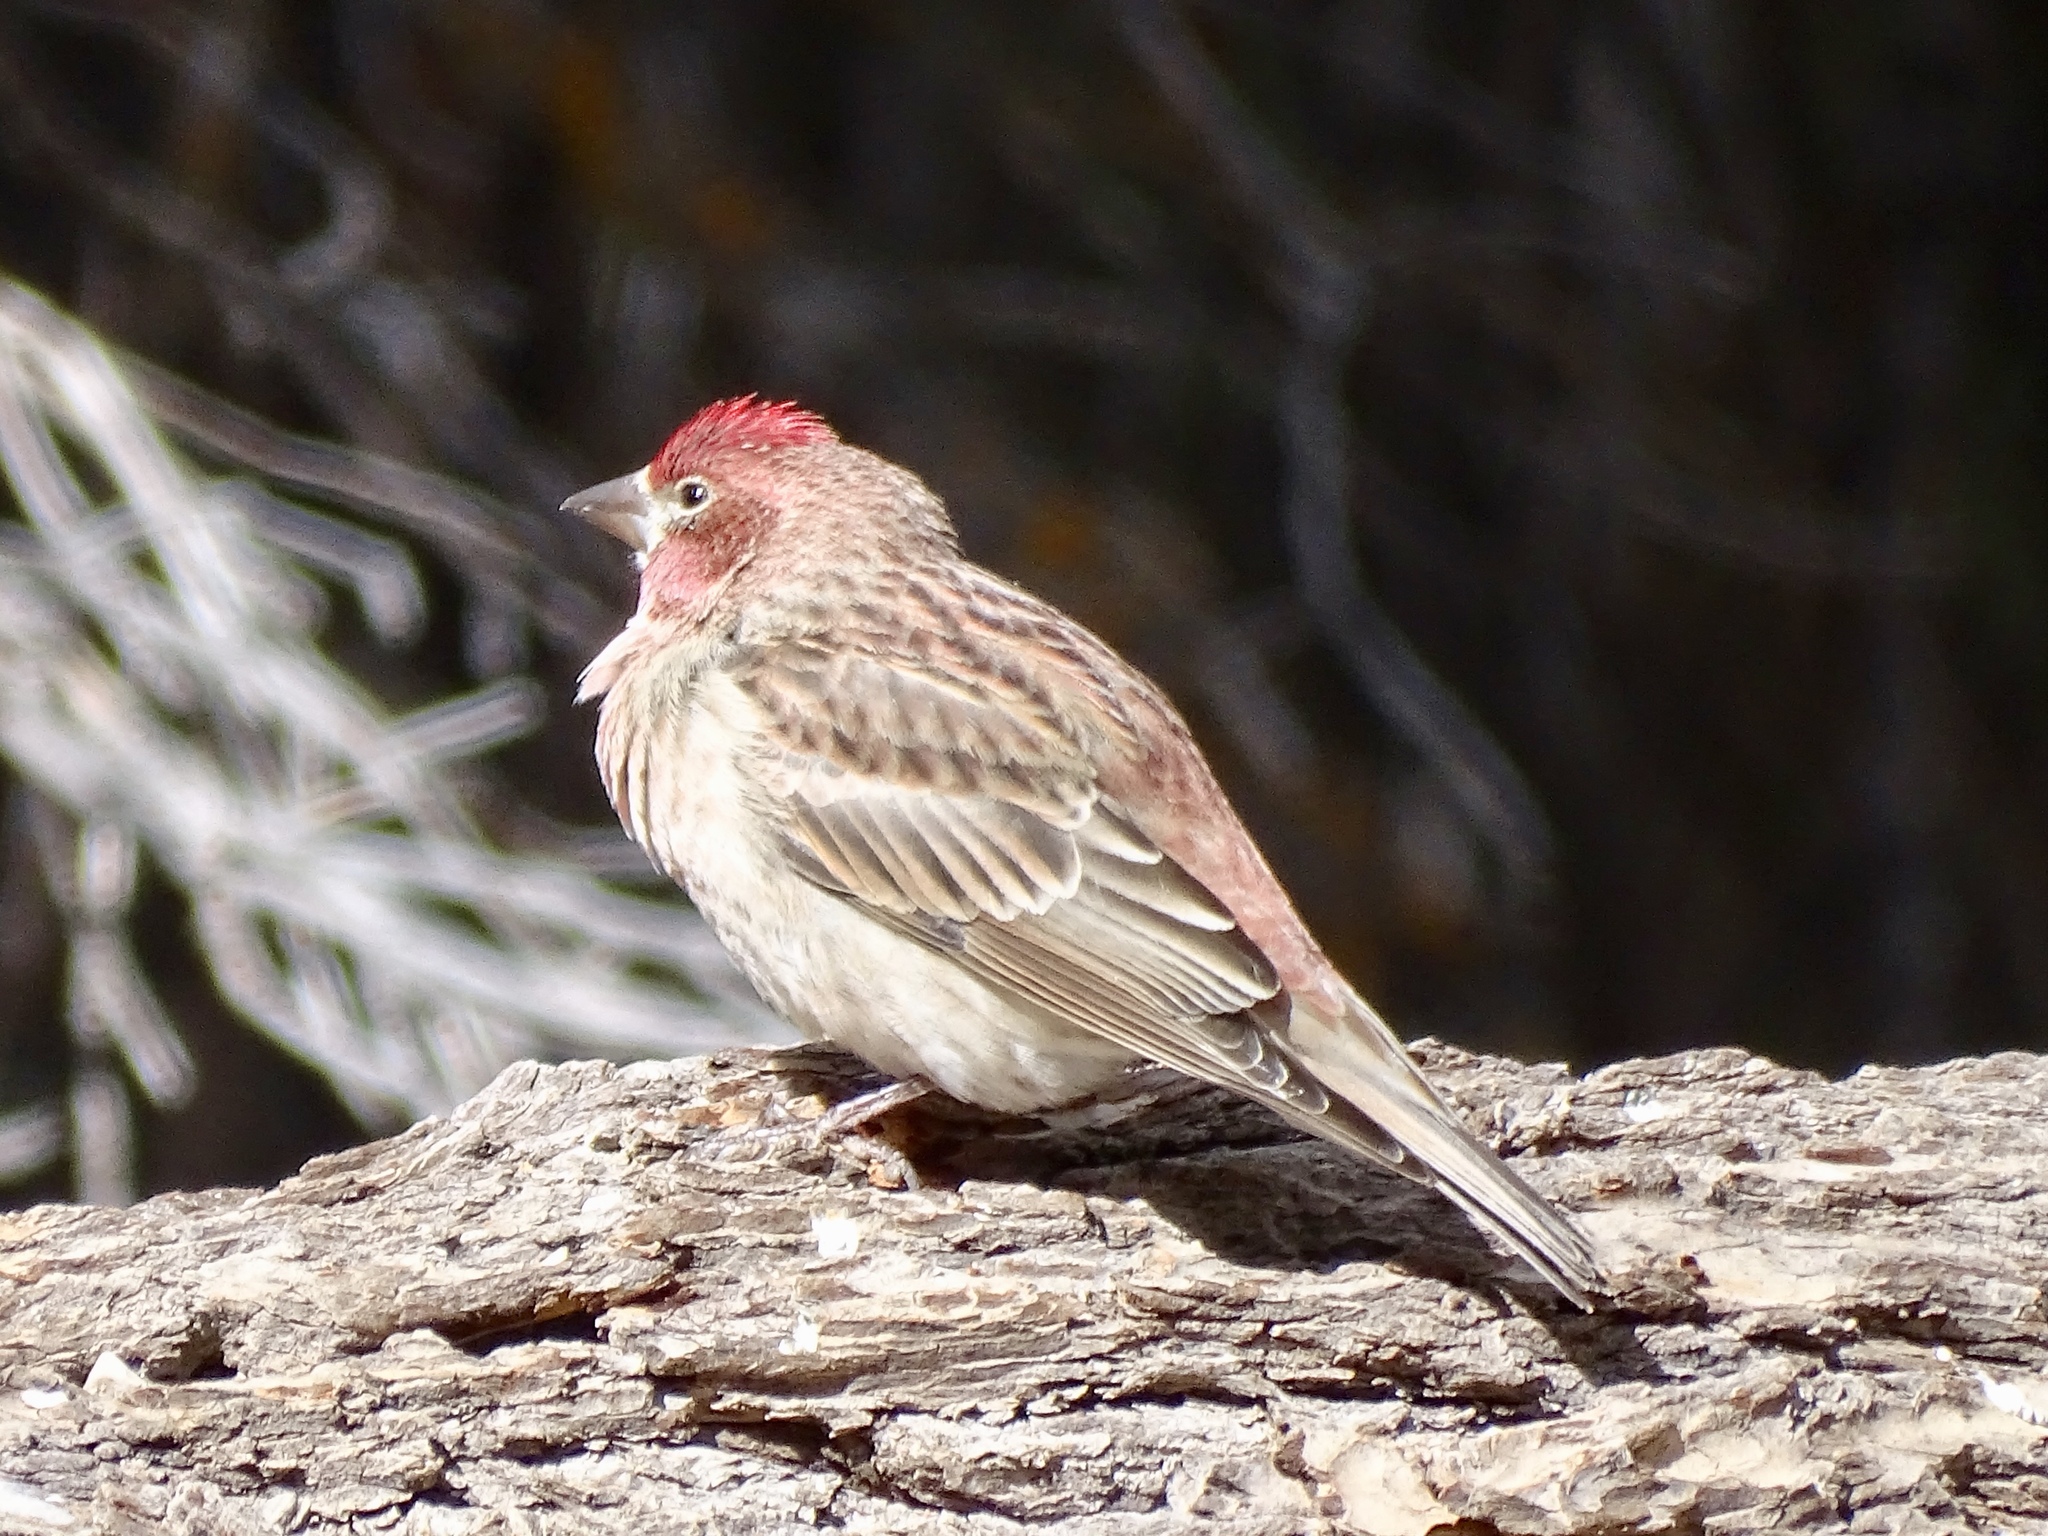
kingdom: Animalia
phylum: Chordata
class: Aves
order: Passeriformes
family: Fringillidae
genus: Haemorhous
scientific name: Haemorhous cassinii
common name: Cassin's finch
